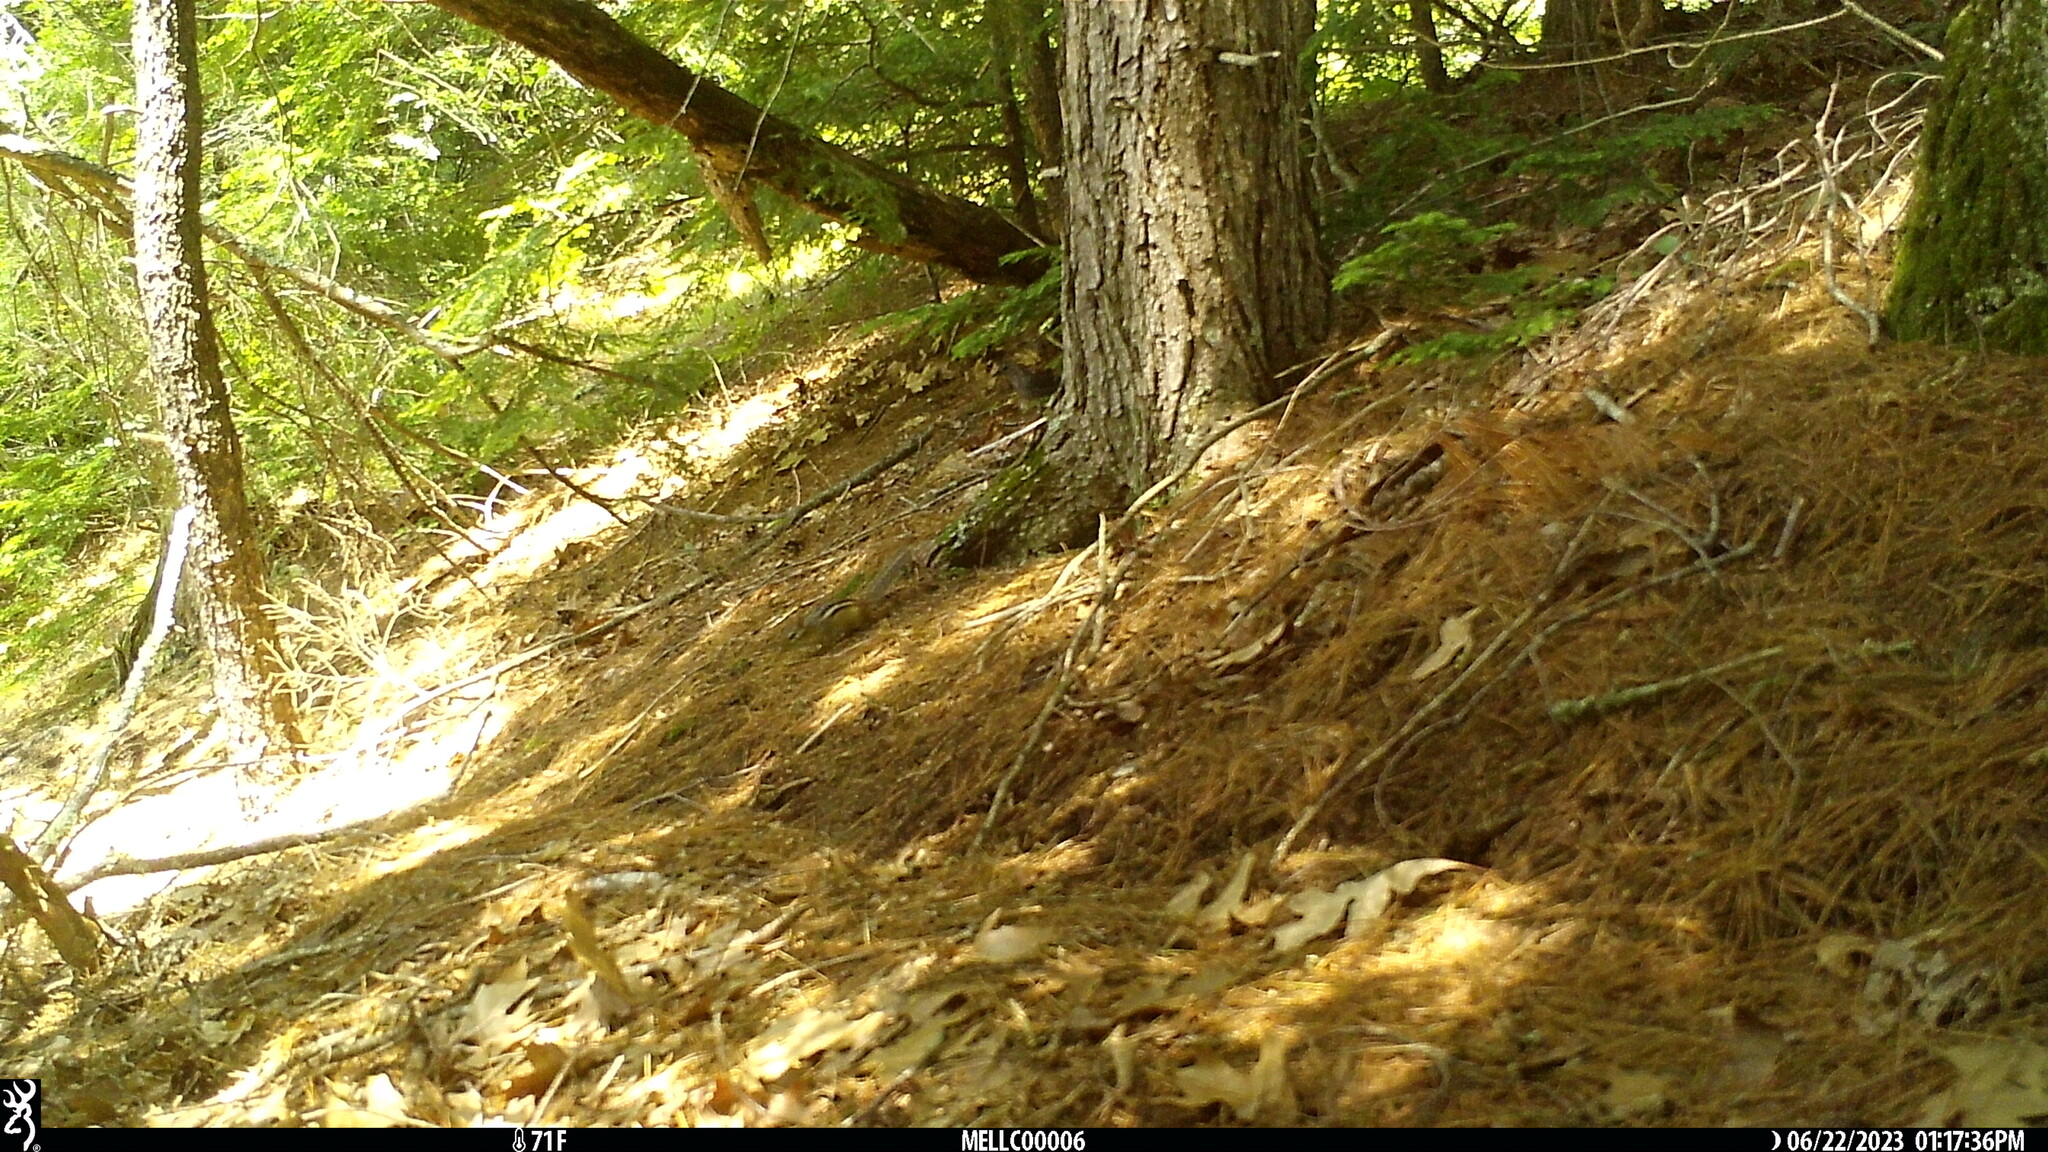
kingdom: Animalia
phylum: Chordata
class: Mammalia
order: Rodentia
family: Sciuridae
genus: Tamias
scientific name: Tamias striatus
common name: Eastern chipmunk
